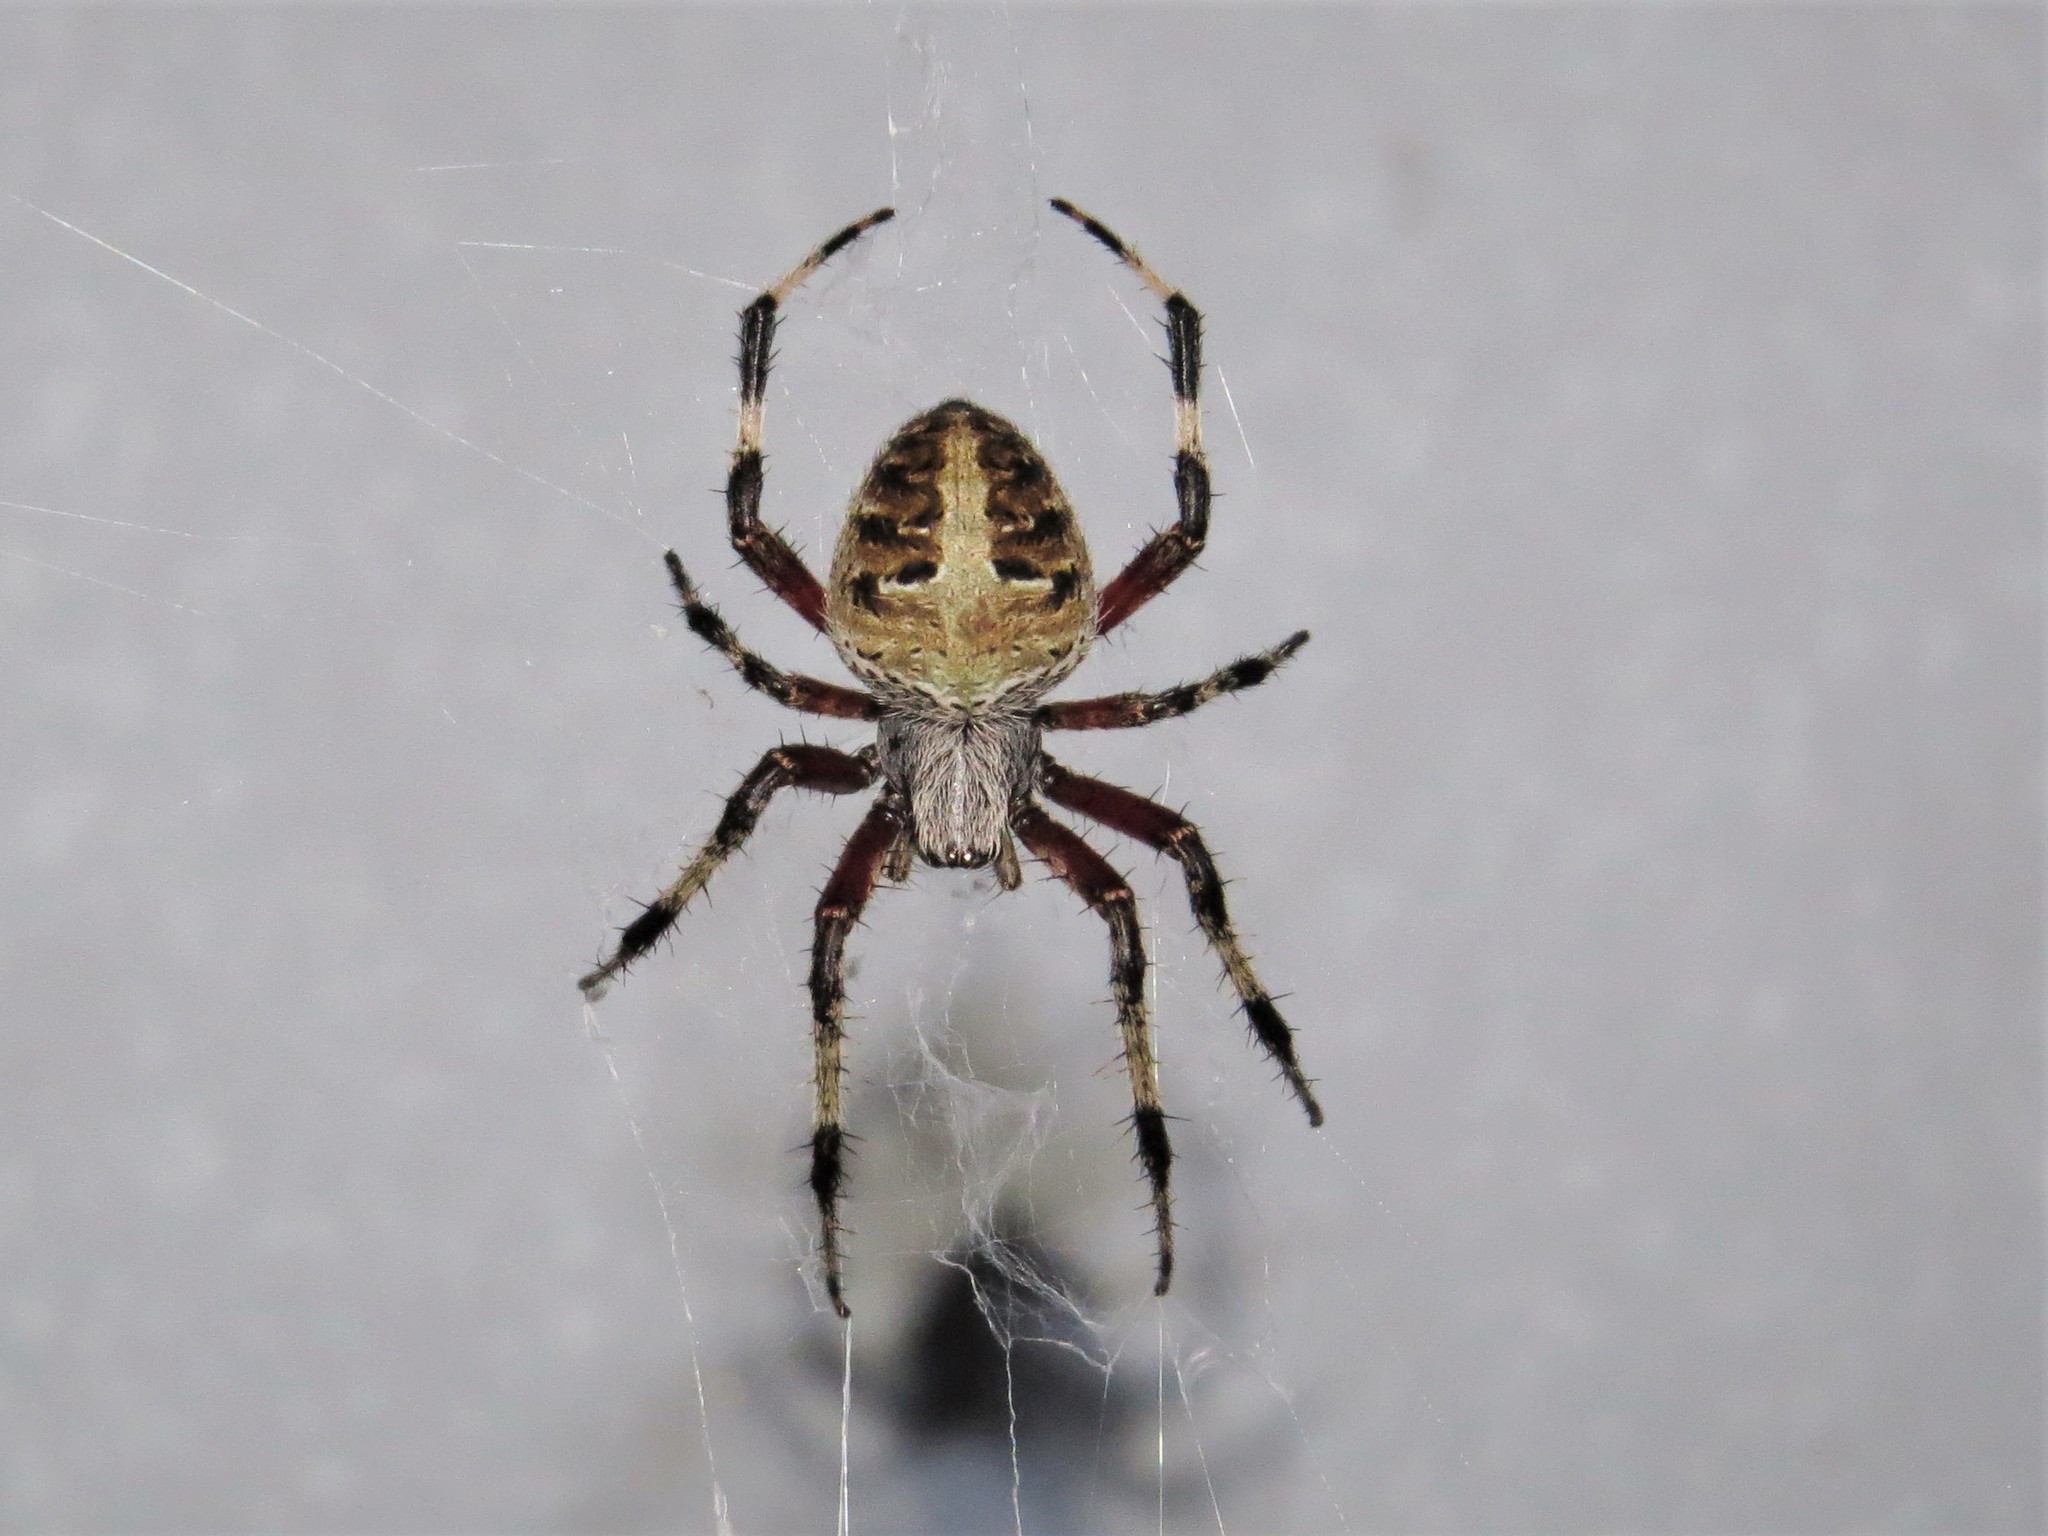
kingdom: Animalia
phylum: Arthropoda
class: Arachnida
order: Araneae
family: Araneidae
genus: Neoscona
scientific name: Neoscona domiciliorum
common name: Red-femured spotted orbweaver
